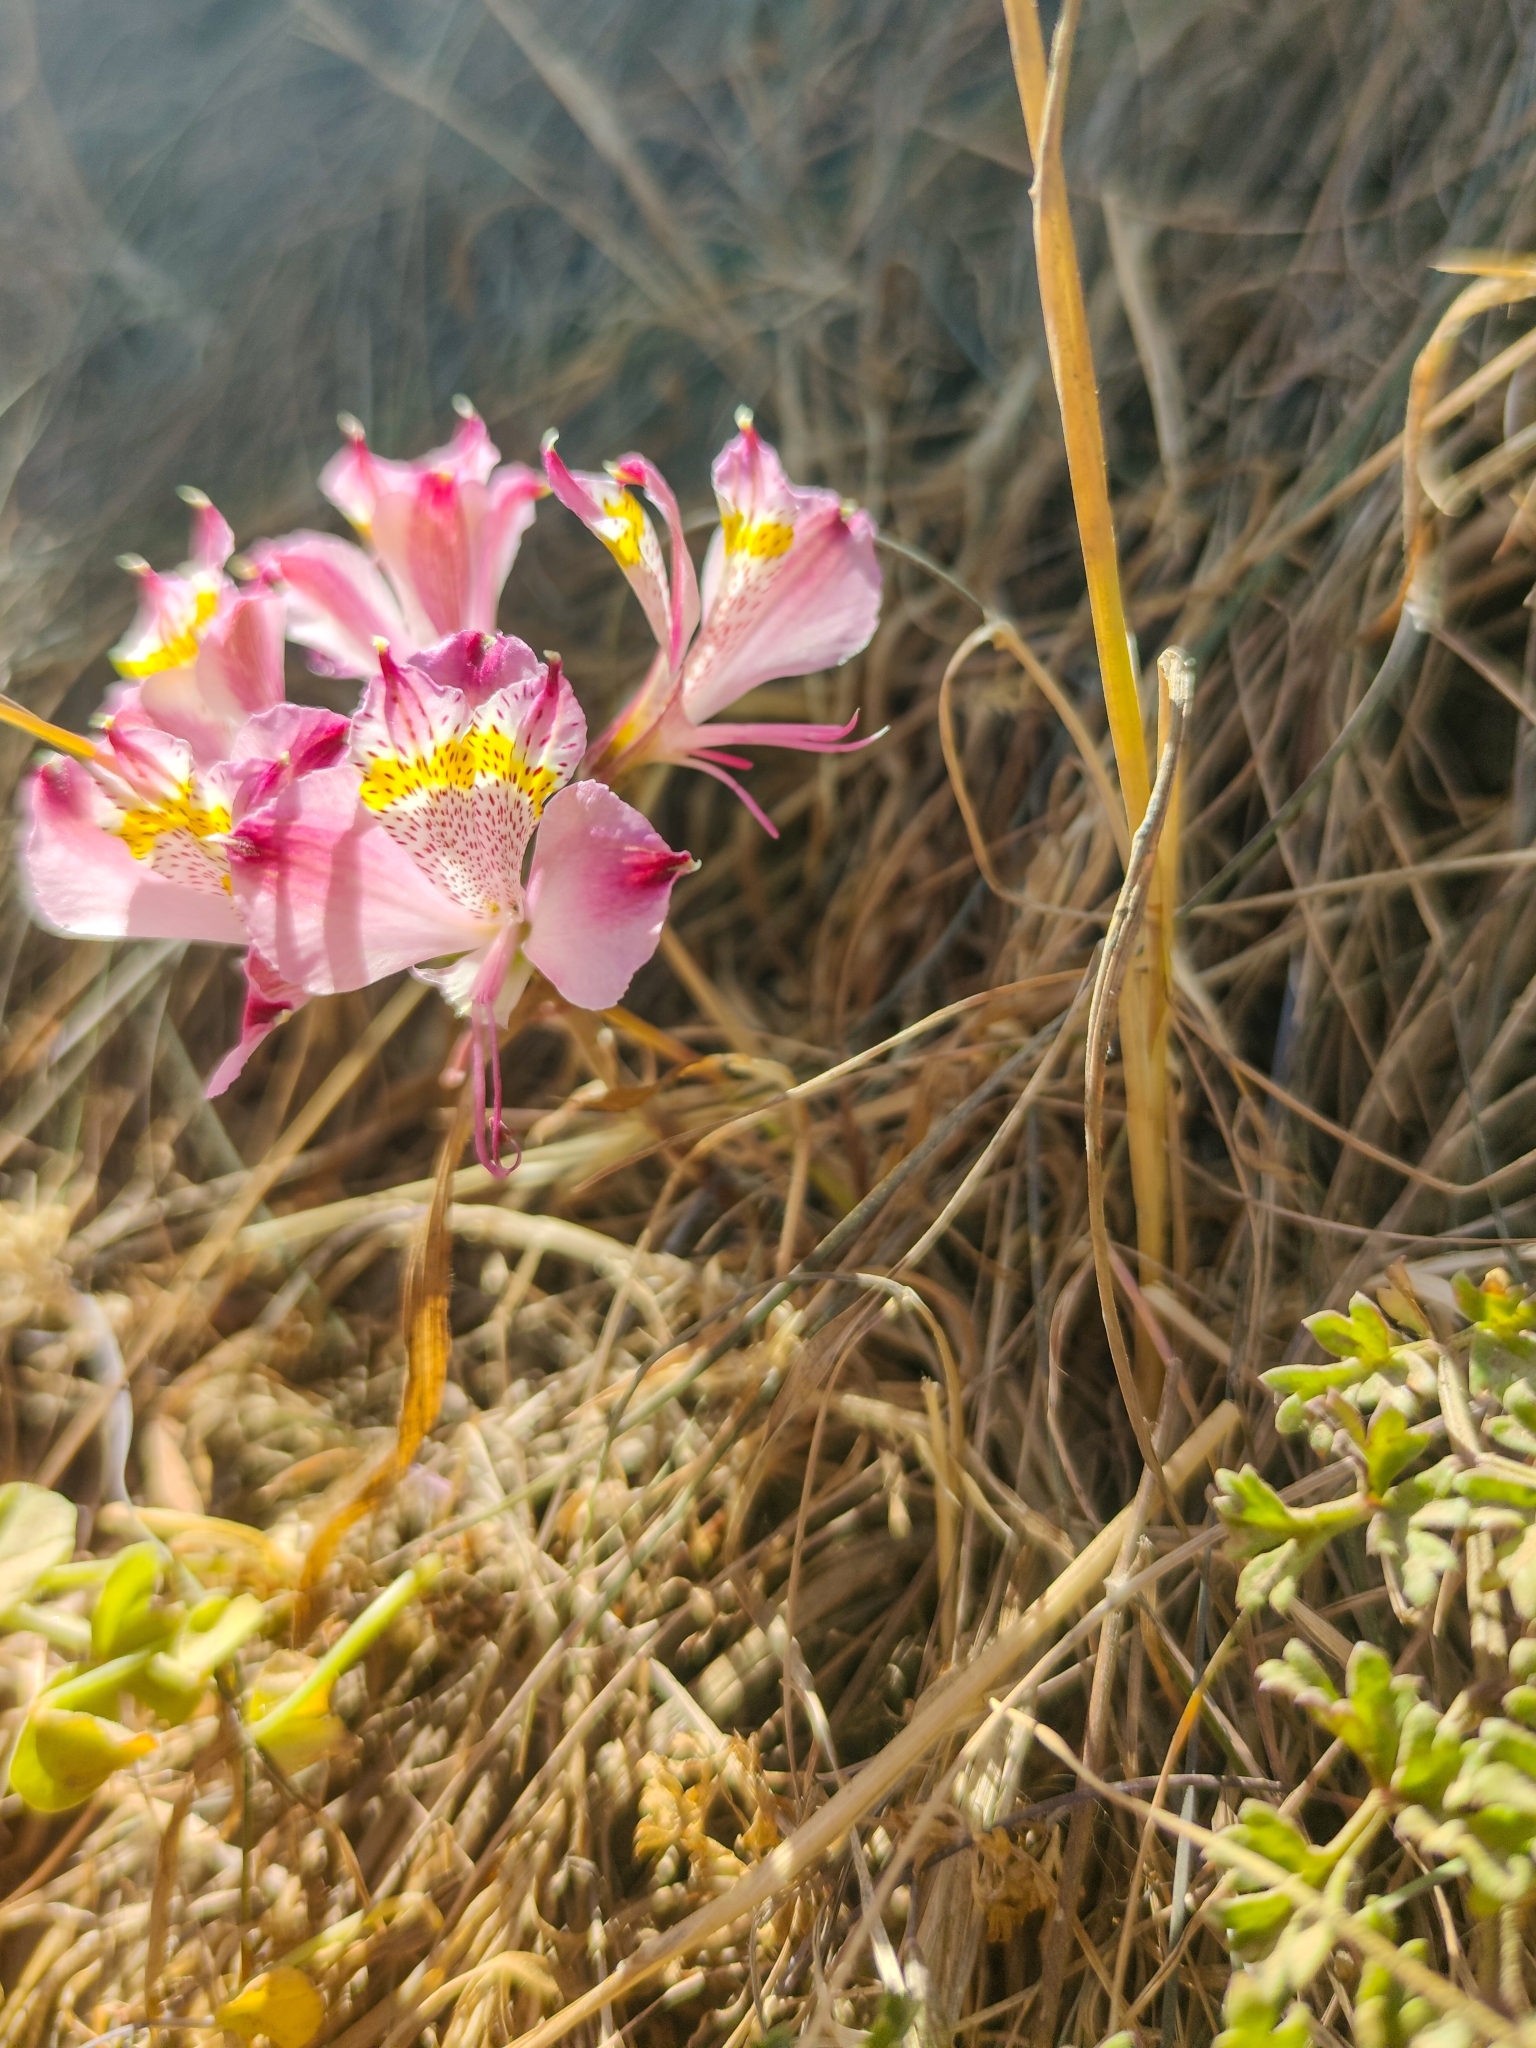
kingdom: Plantae
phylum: Tracheophyta
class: Liliopsida
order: Liliales
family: Alstroemeriaceae
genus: Alstroemeria
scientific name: Alstroemeria hookeri
